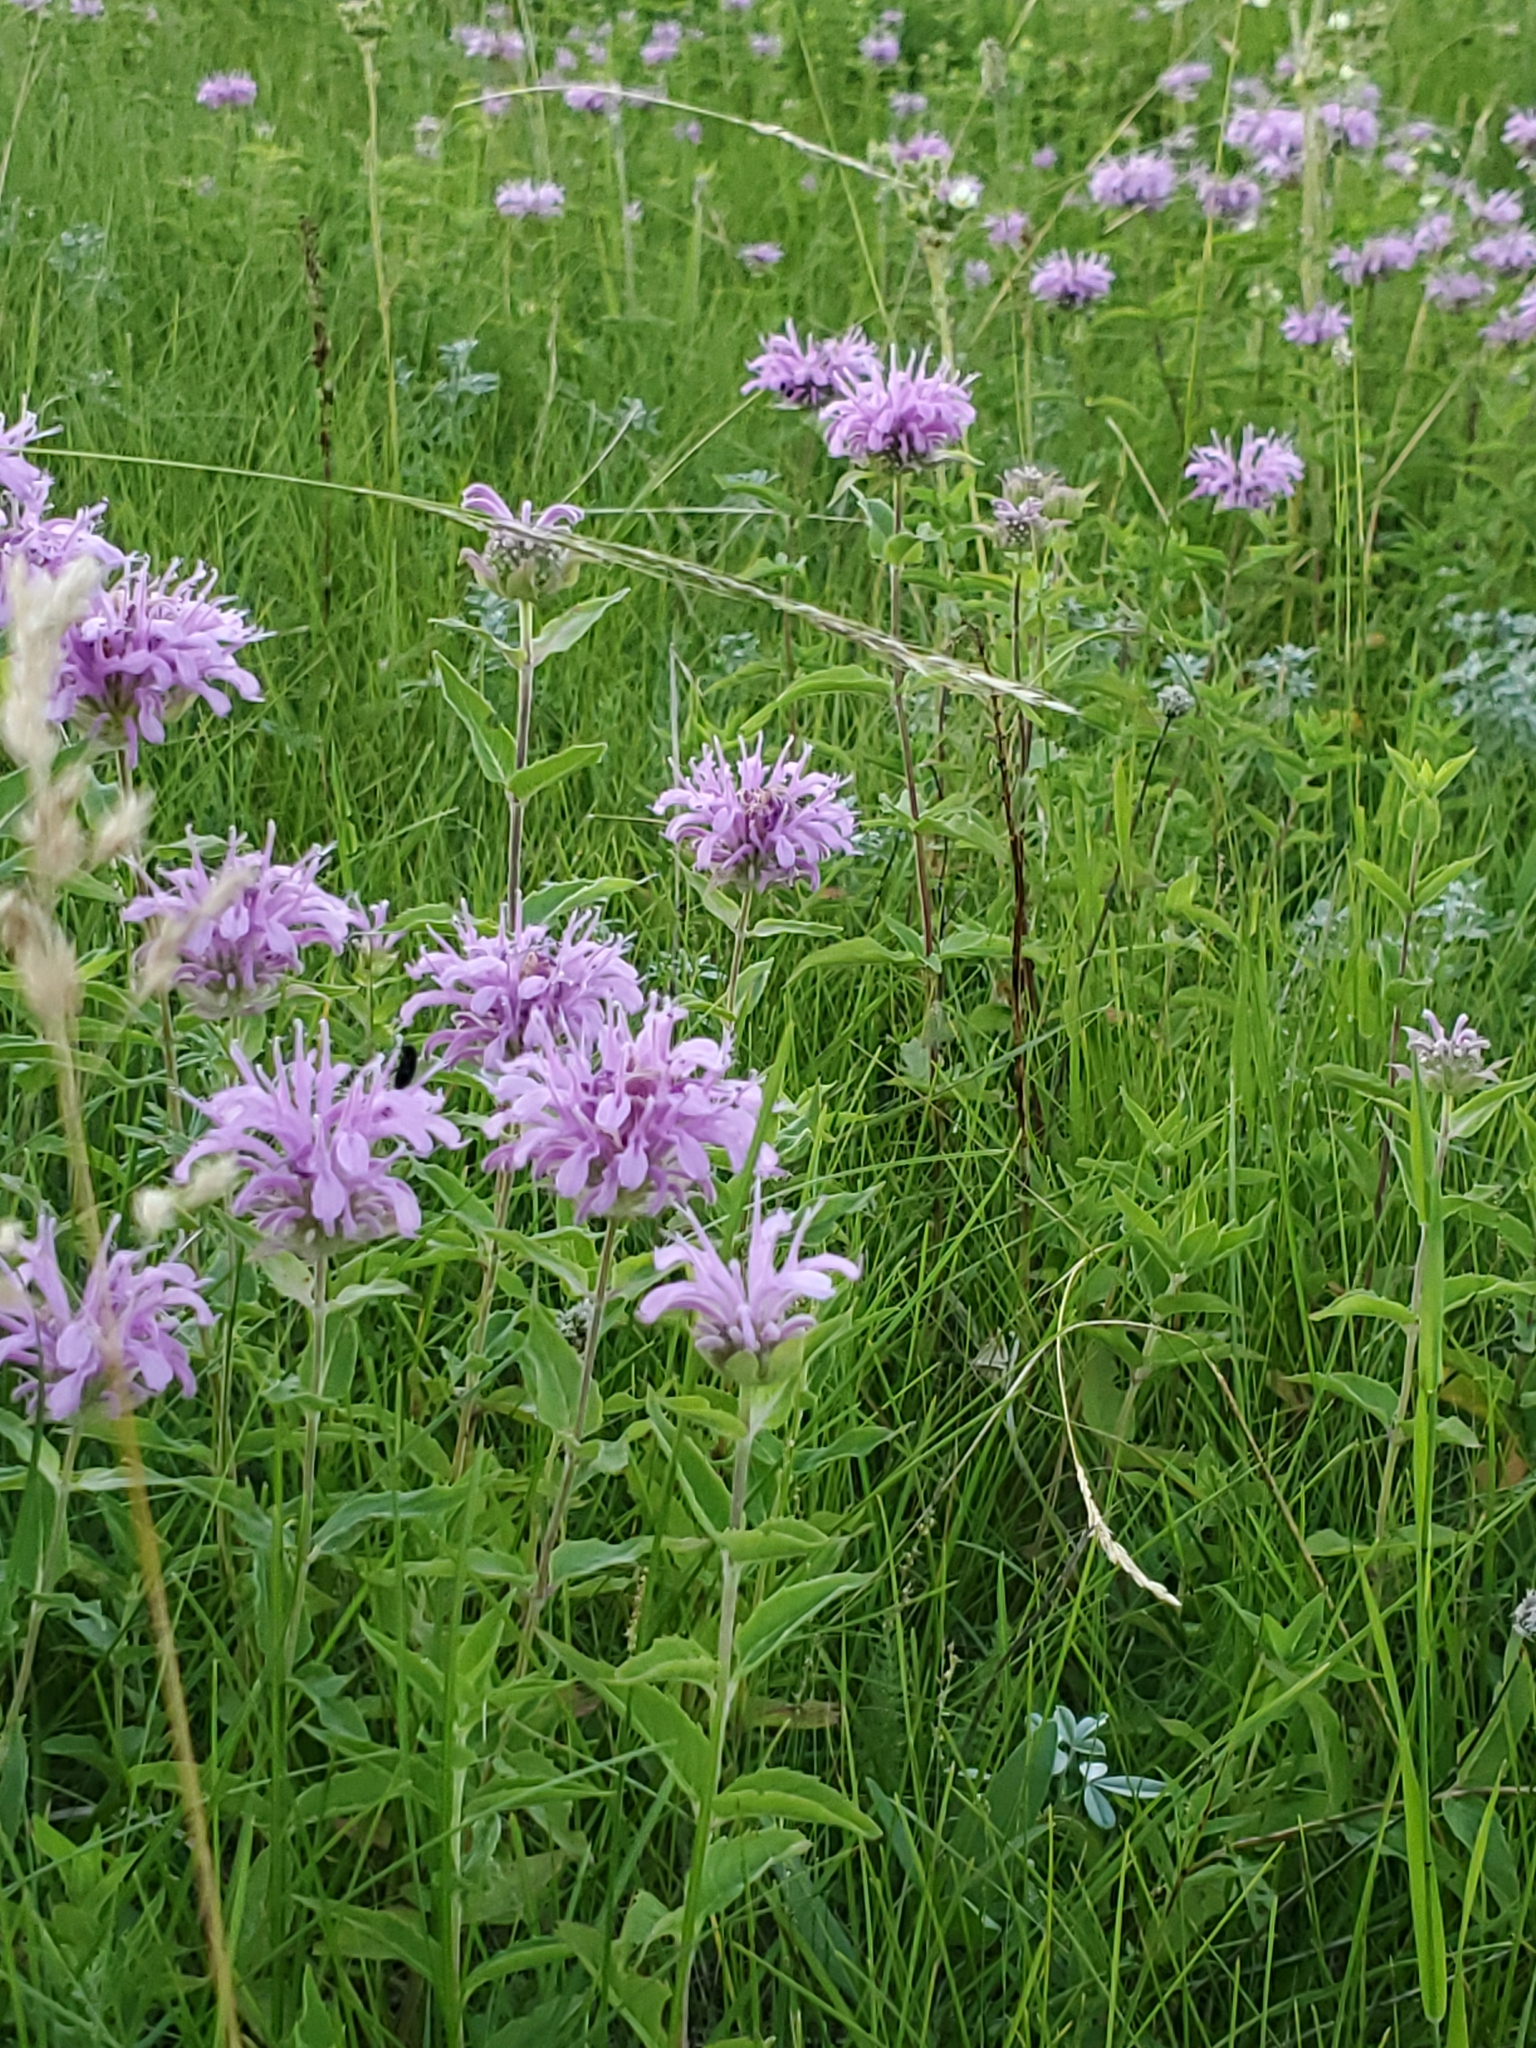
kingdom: Plantae
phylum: Tracheophyta
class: Magnoliopsida
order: Lamiales
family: Lamiaceae
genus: Monarda
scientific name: Monarda fistulosa
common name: Purple beebalm
